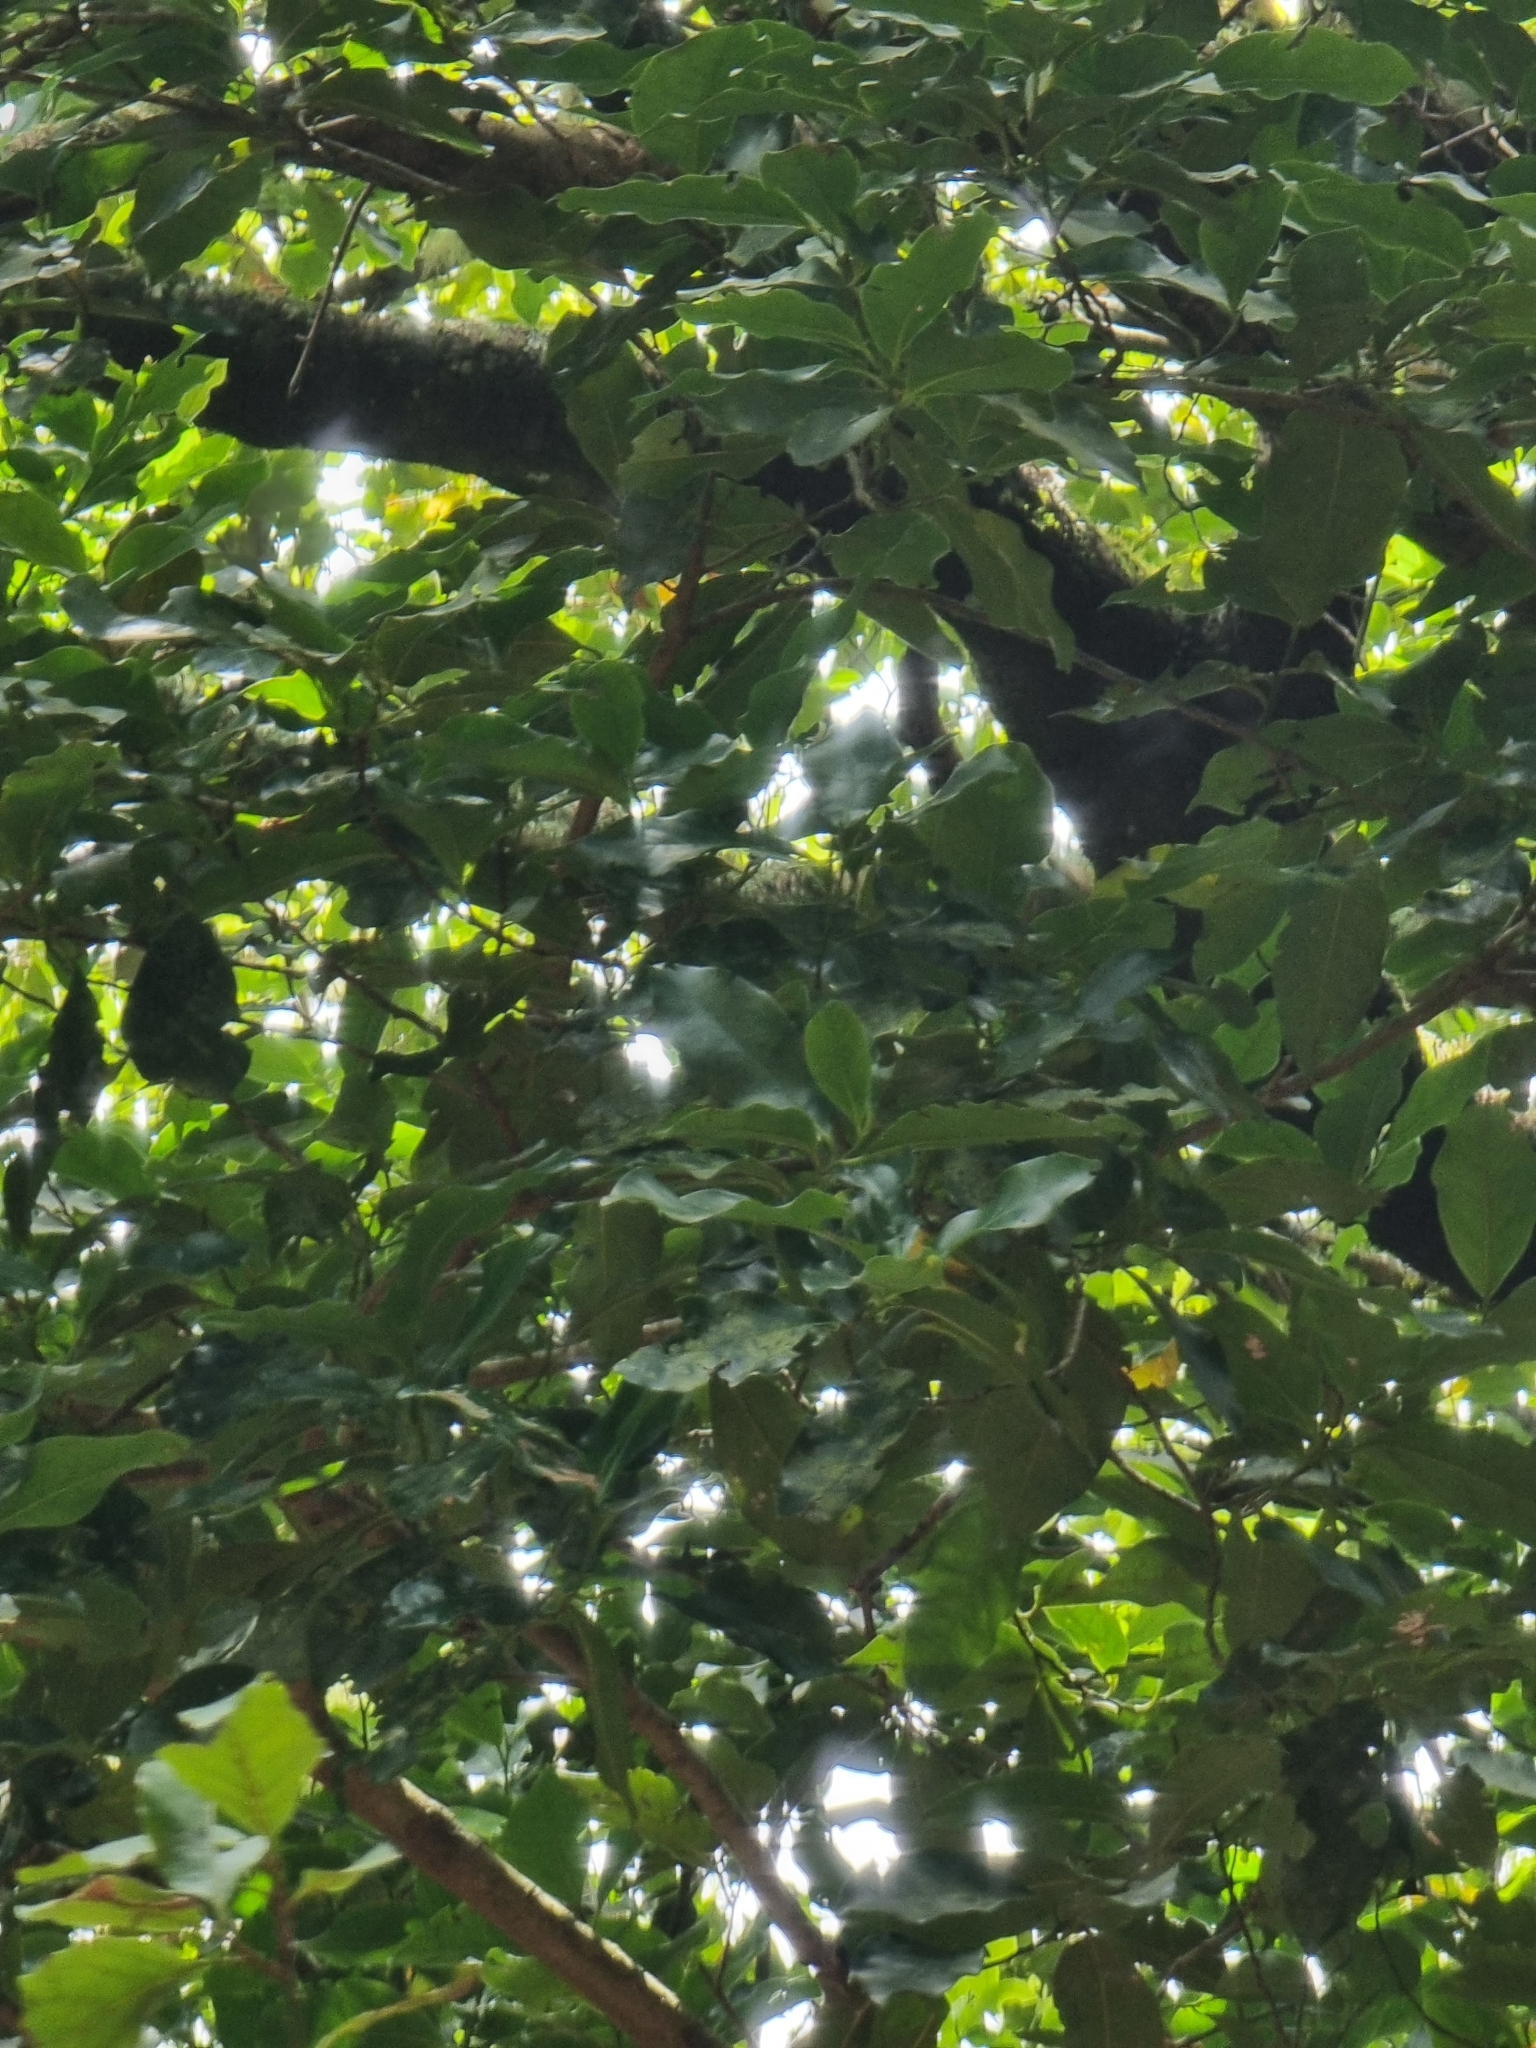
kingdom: Plantae
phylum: Tracheophyta
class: Magnoliopsida
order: Laurales
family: Lauraceae
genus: Mespilodaphne
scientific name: Mespilodaphne foetens
